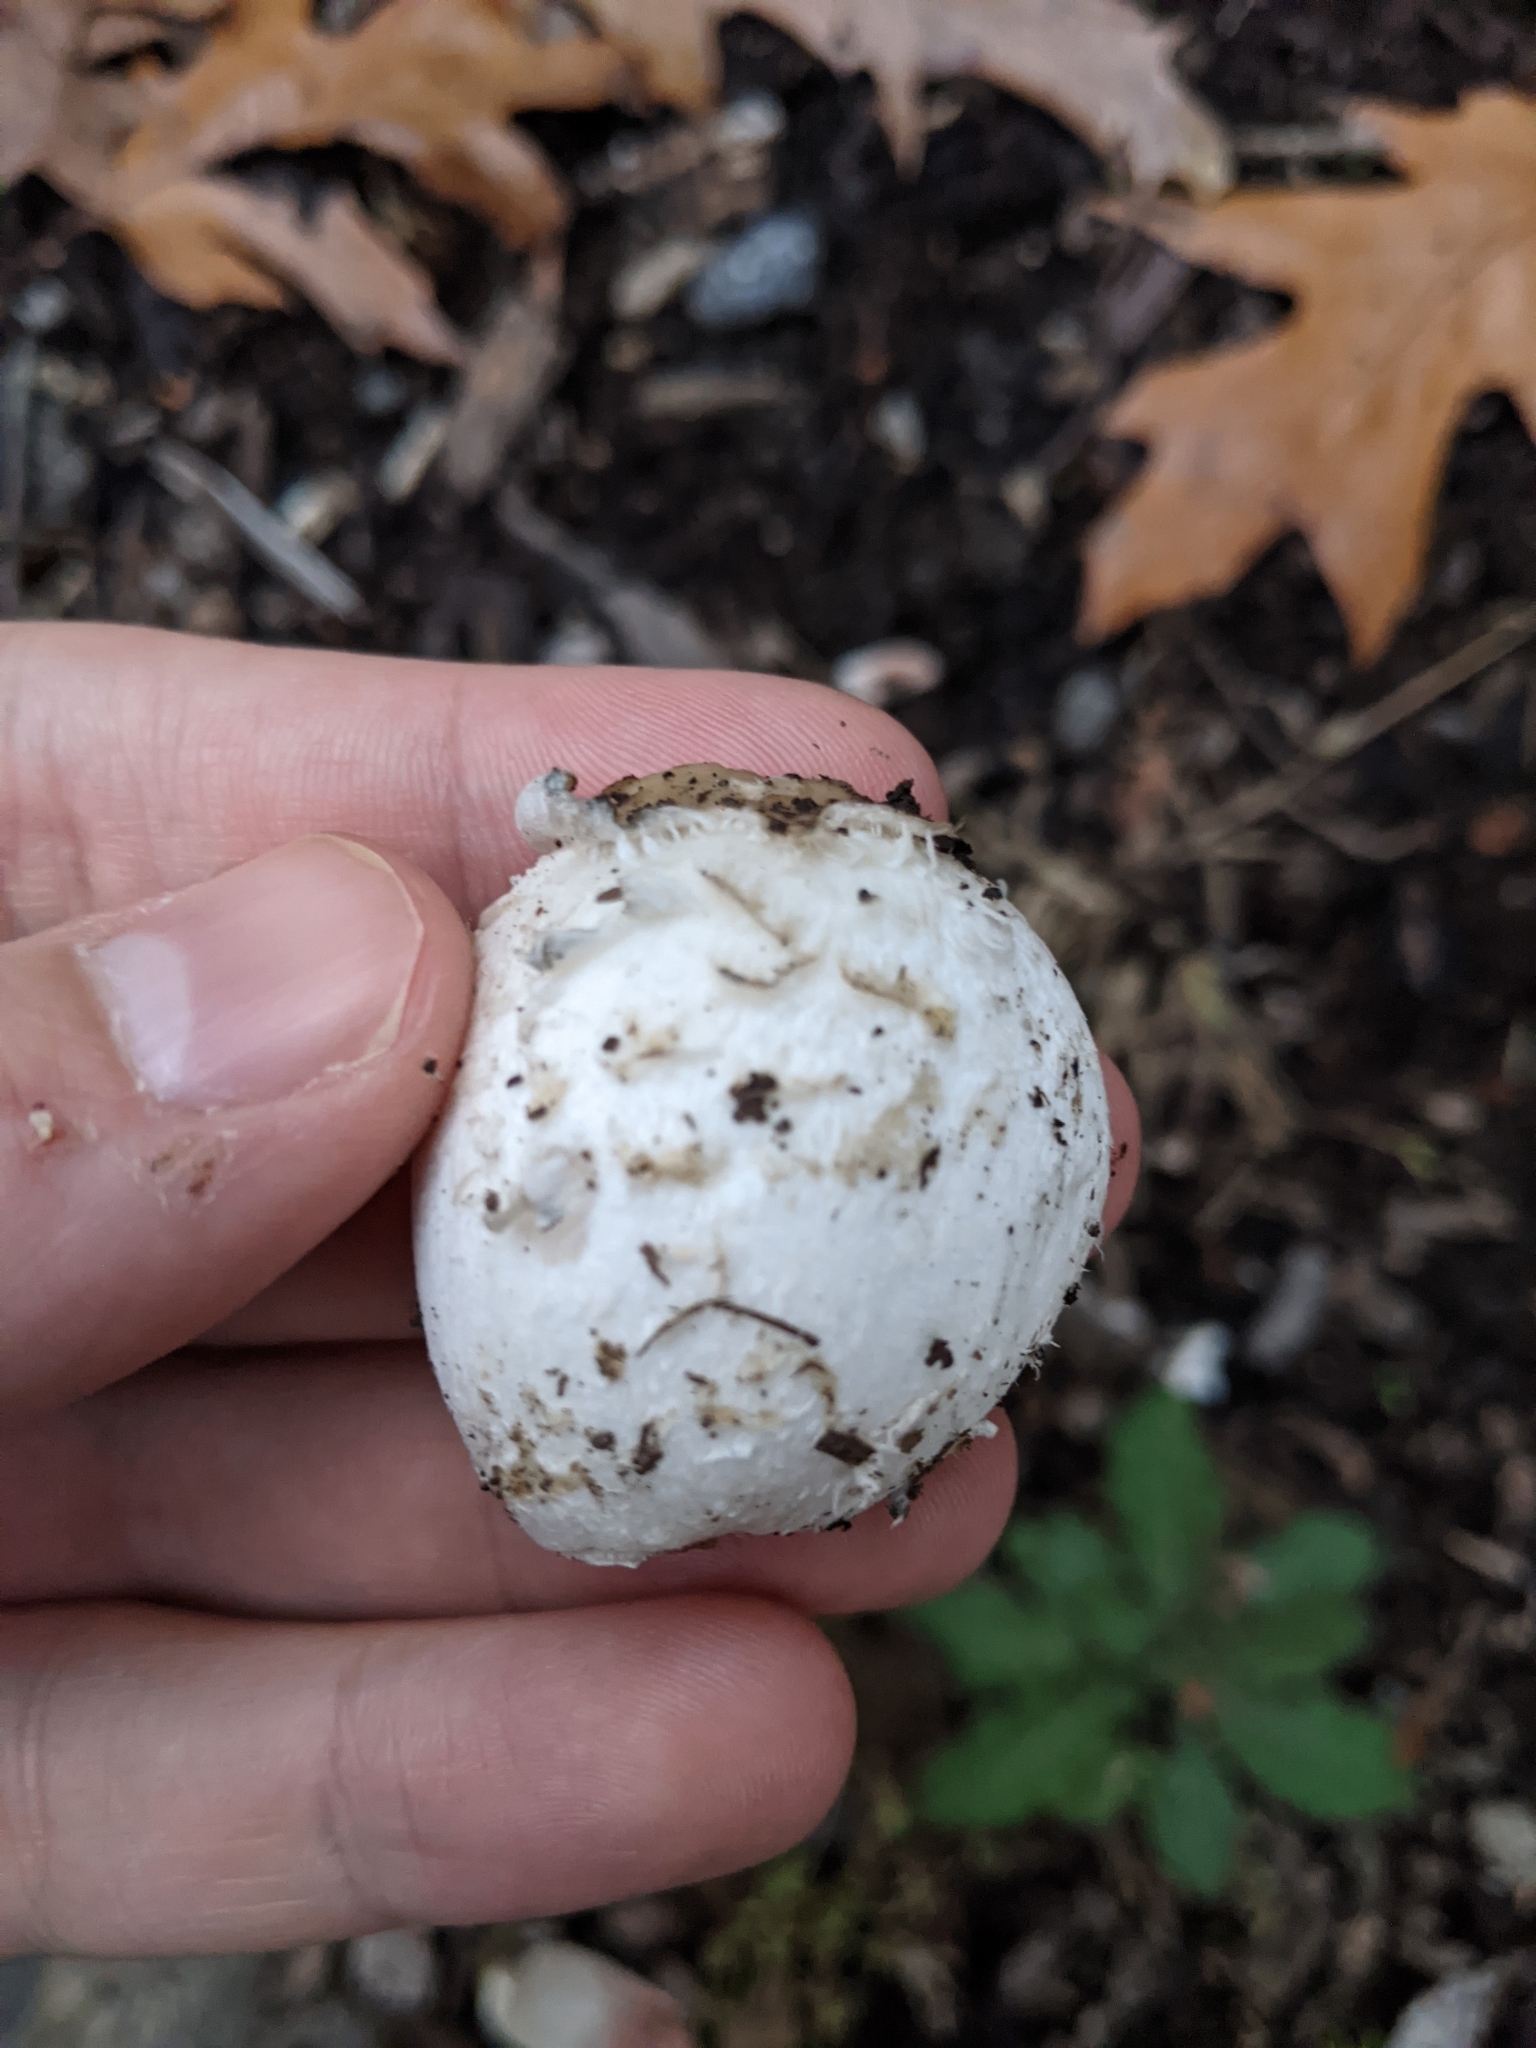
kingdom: Fungi
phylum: Basidiomycota
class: Agaricomycetes
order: Agaricales
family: Agaricaceae
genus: Coprinus
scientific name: Coprinus comatus
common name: Lawyer's wig
